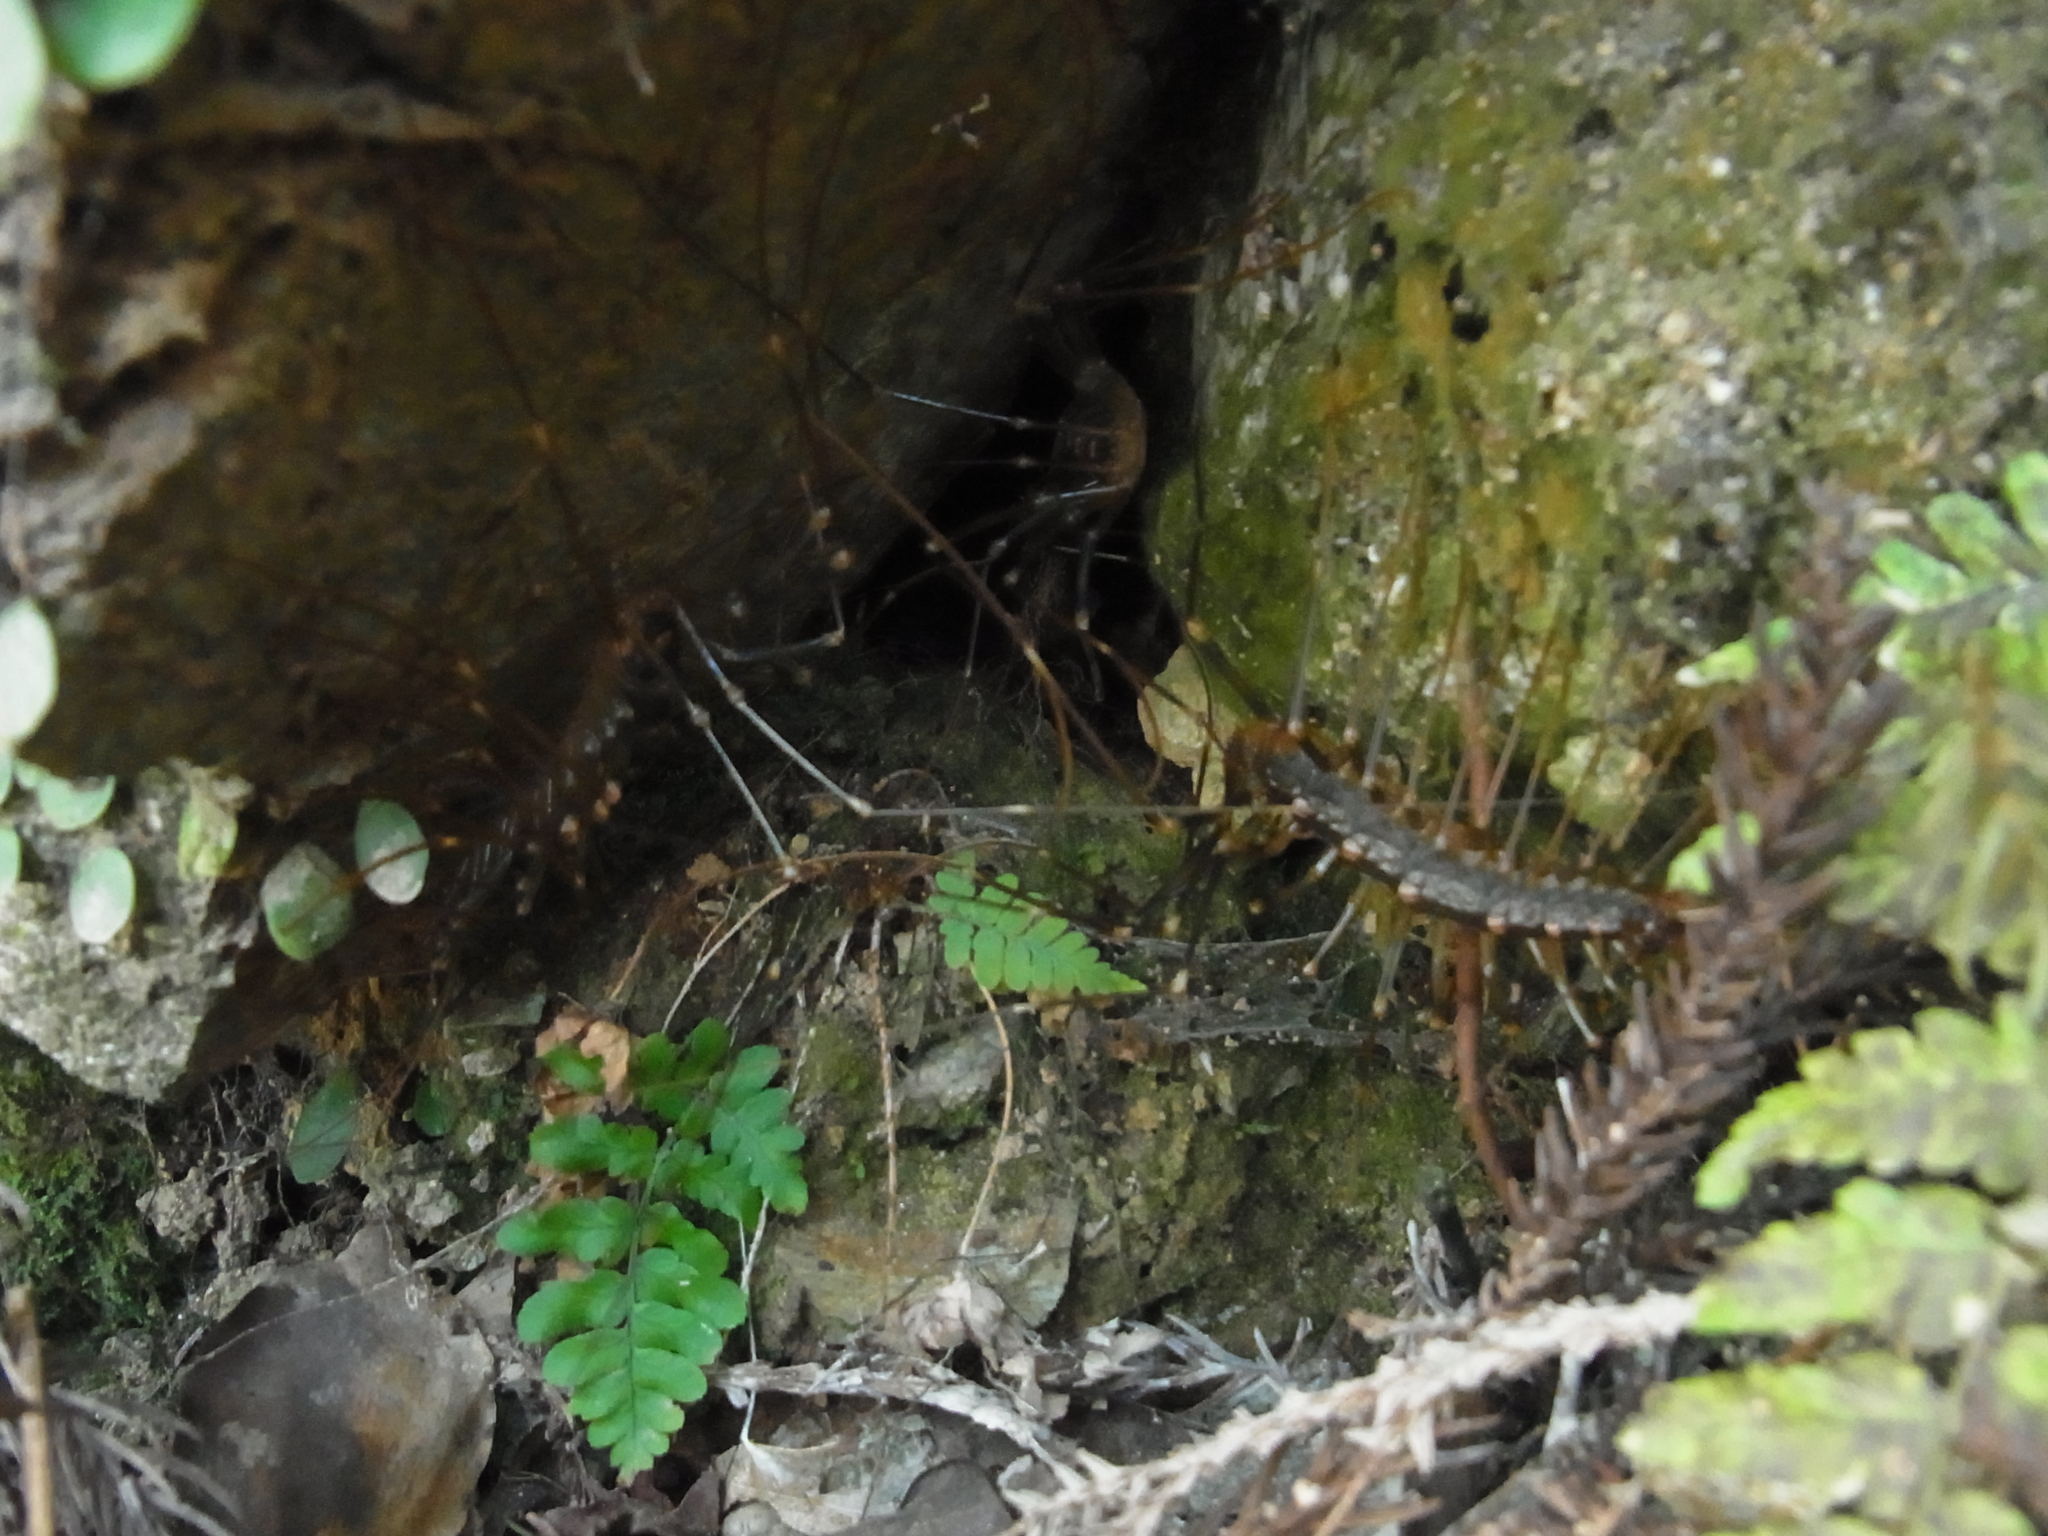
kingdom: Animalia
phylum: Arthropoda
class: Chilopoda
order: Scutigeromorpha
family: Scutigeridae
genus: Thereuopoda
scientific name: Thereuopoda clunifera
